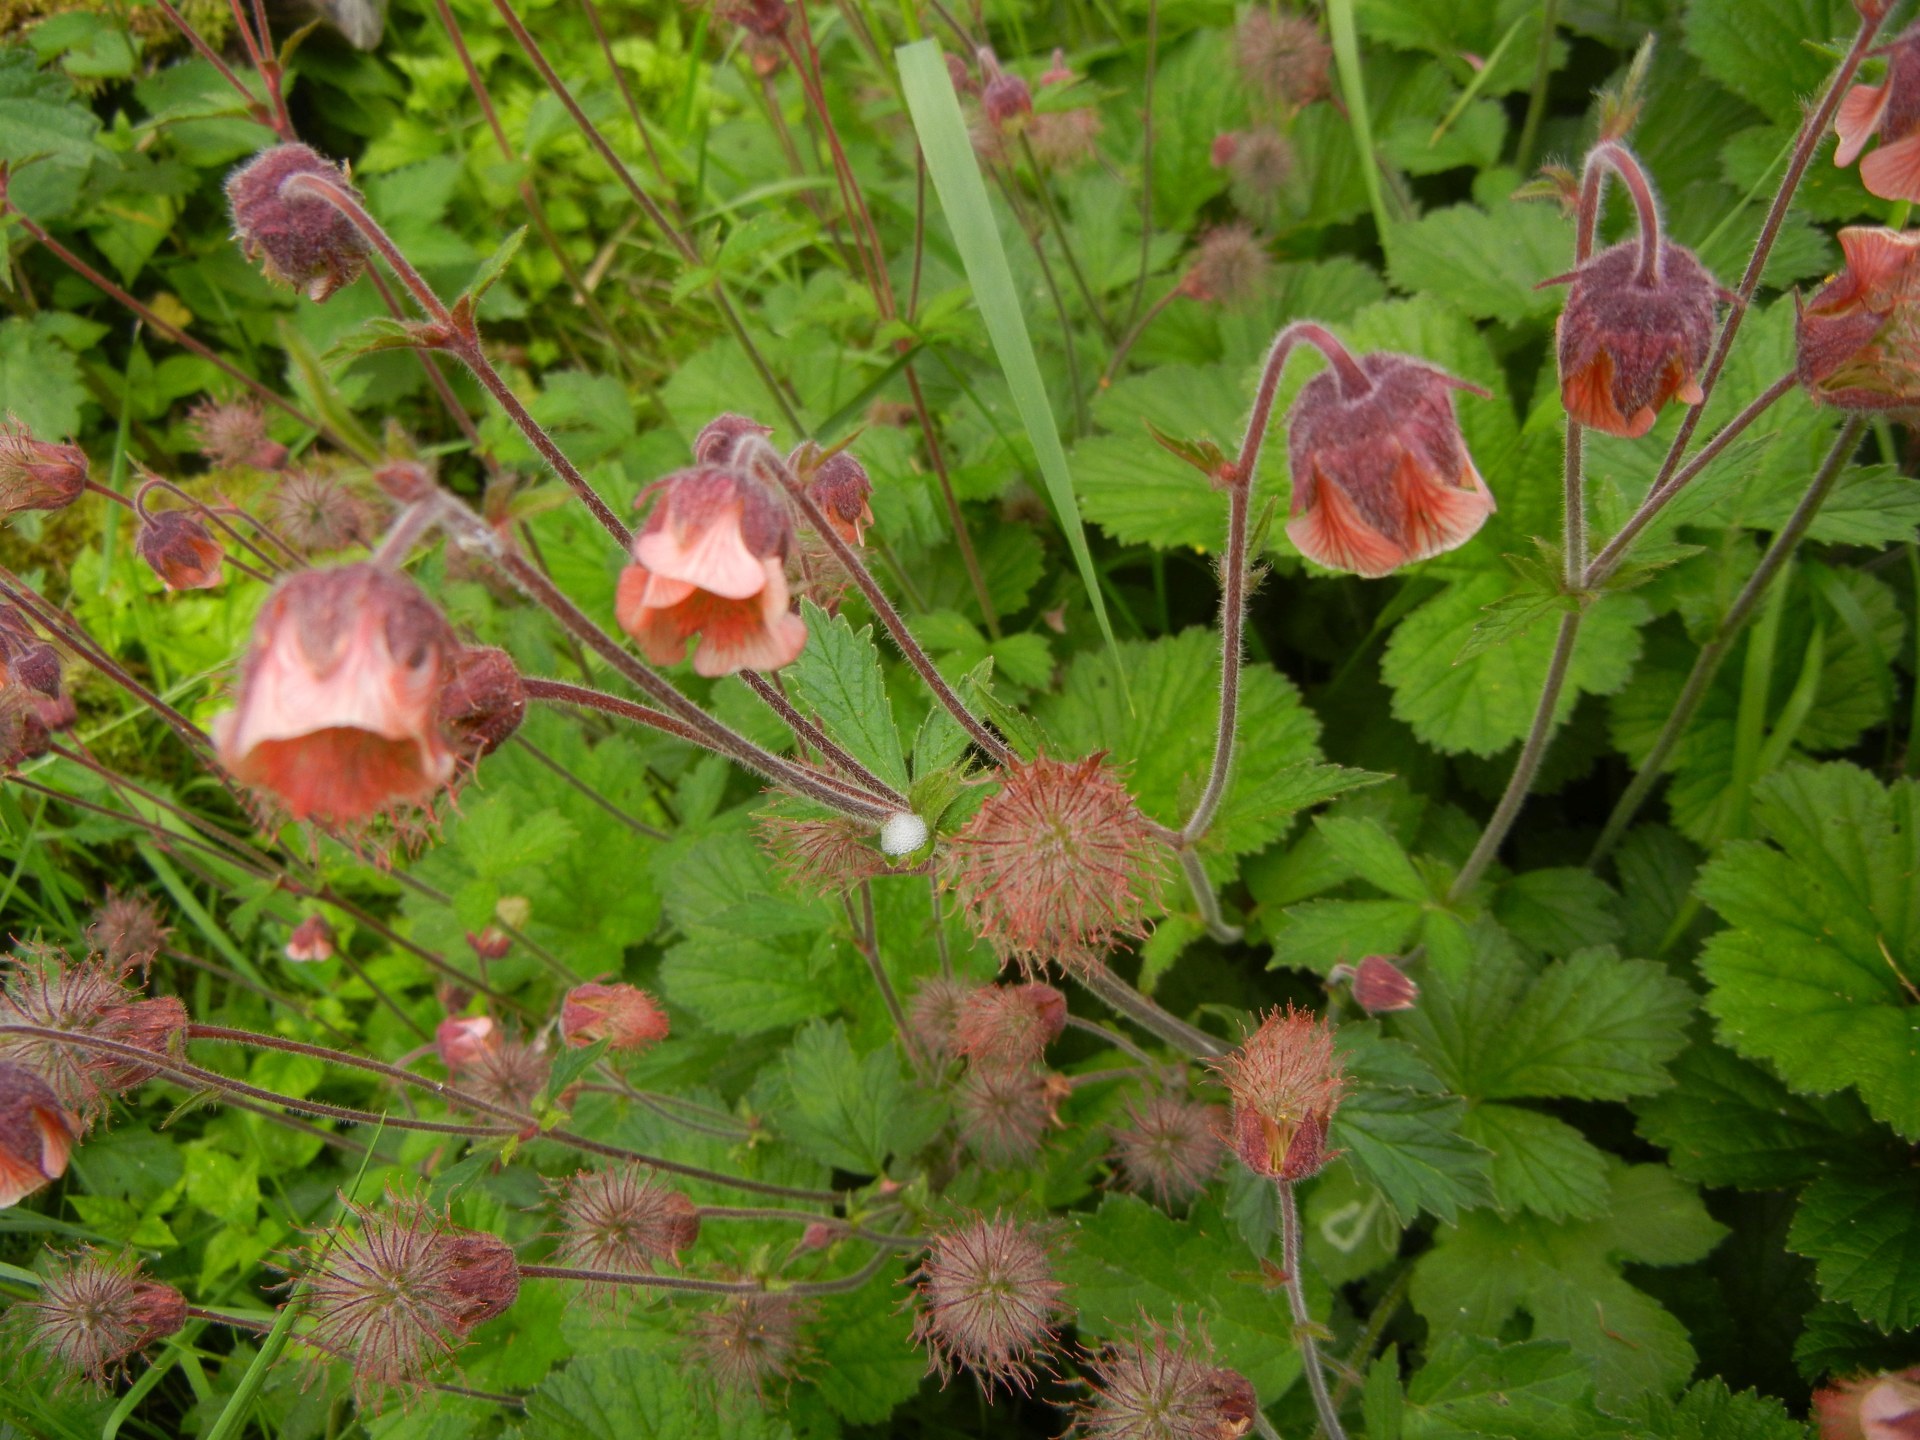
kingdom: Plantae
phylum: Tracheophyta
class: Magnoliopsida
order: Rosales
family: Rosaceae
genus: Geum
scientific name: Geum rivale
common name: Water avens
